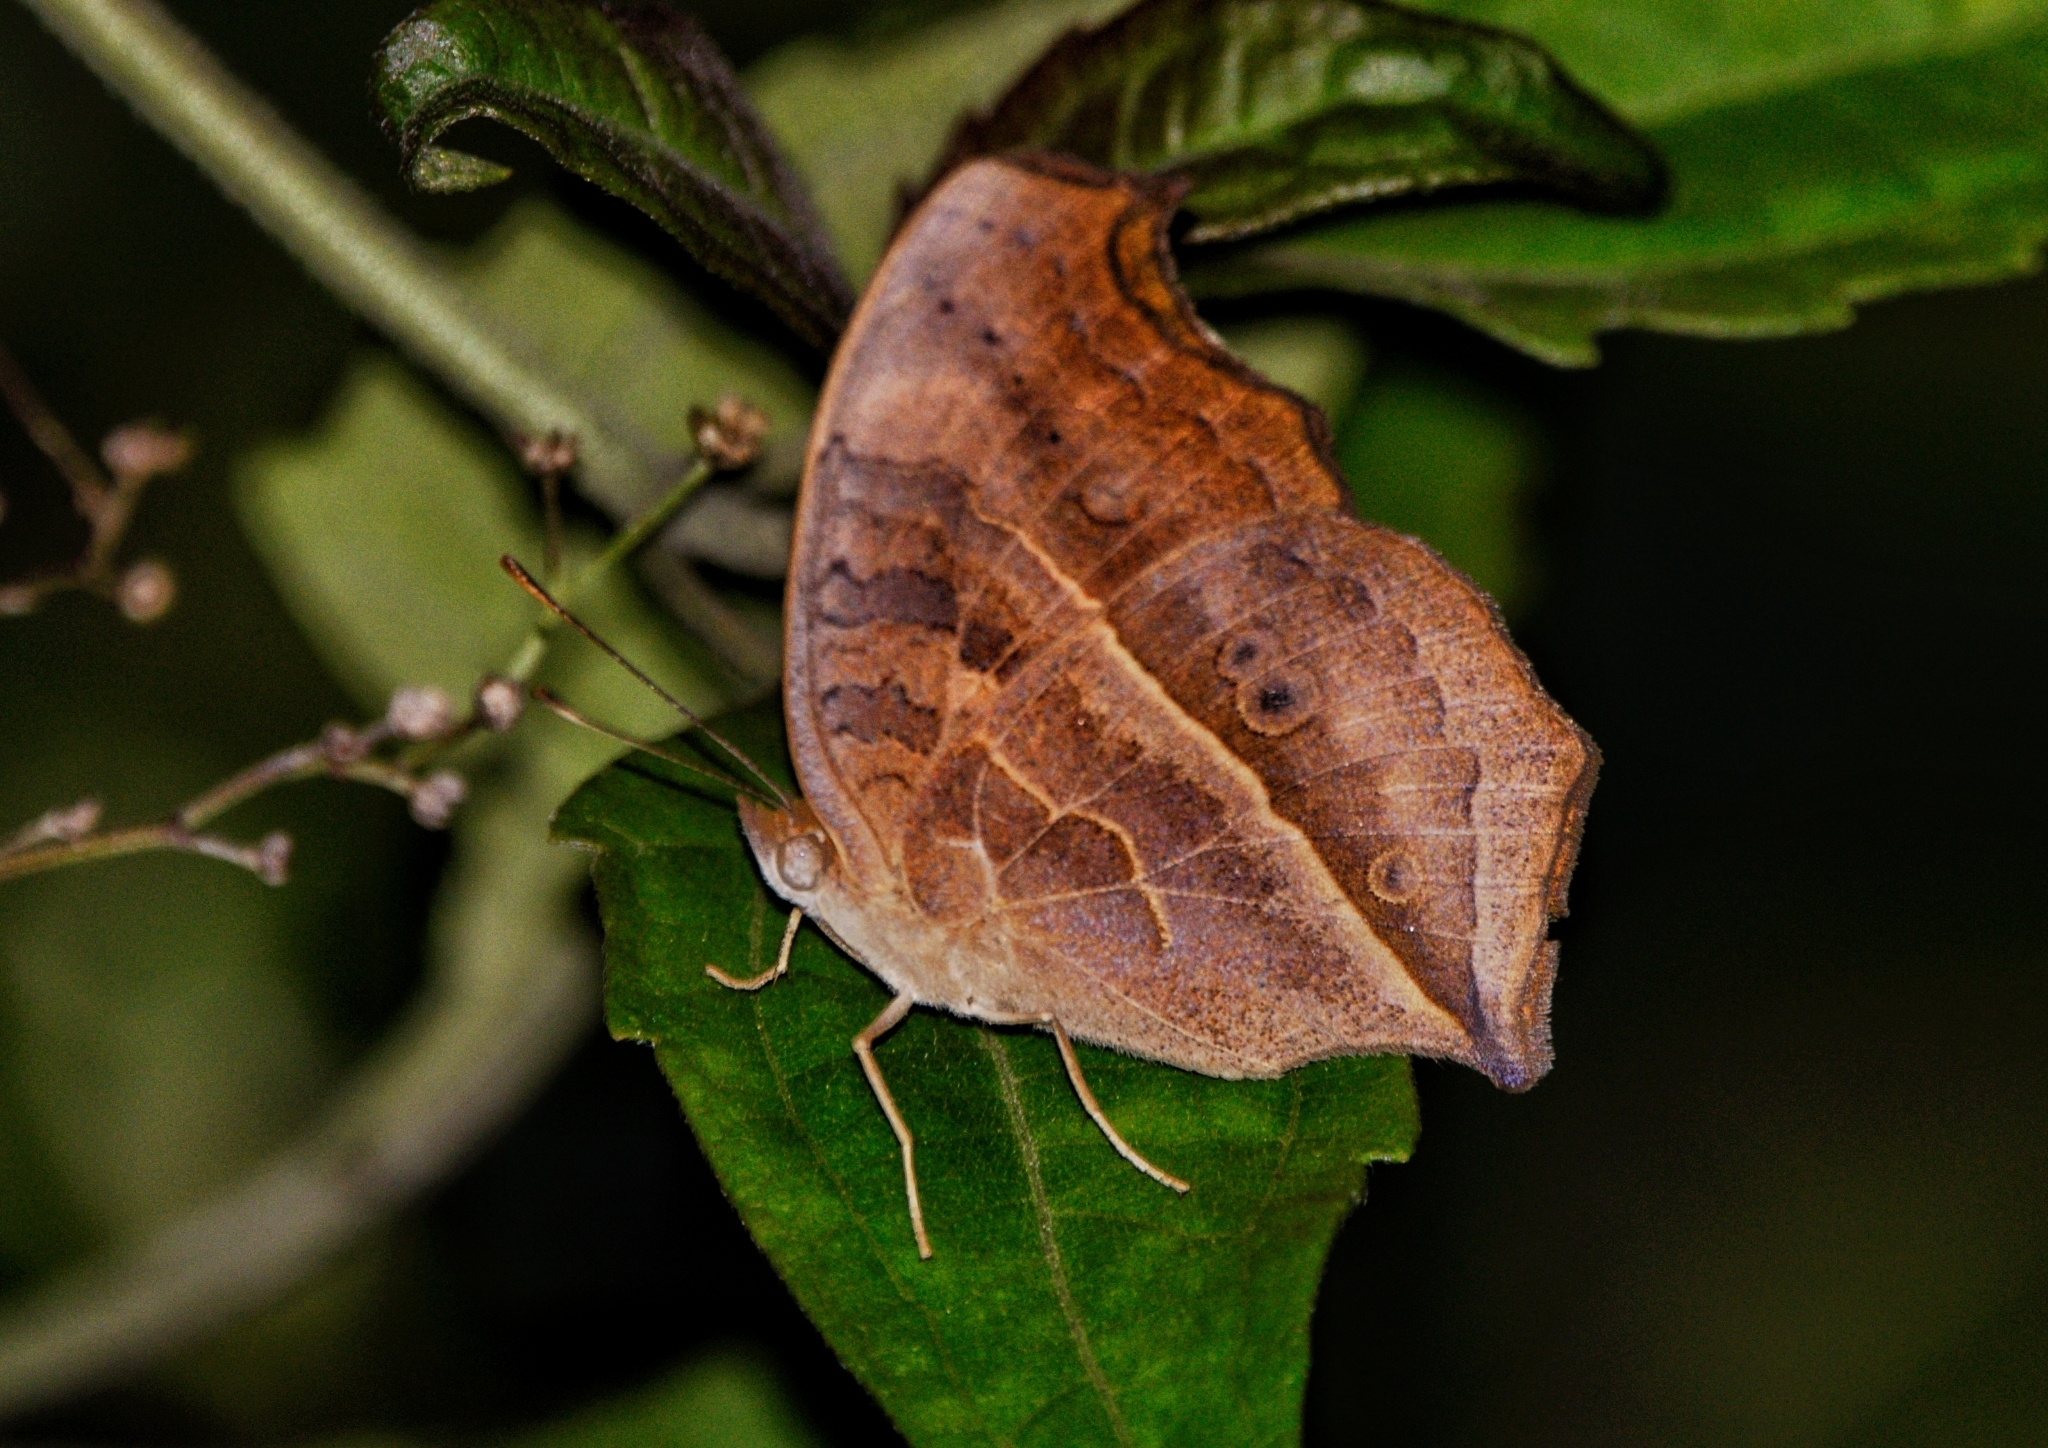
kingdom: Animalia
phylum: Arthropoda
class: Insecta
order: Lepidoptera
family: Nymphalidae
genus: Junonia
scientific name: Junonia almana
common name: Peacock pansy
